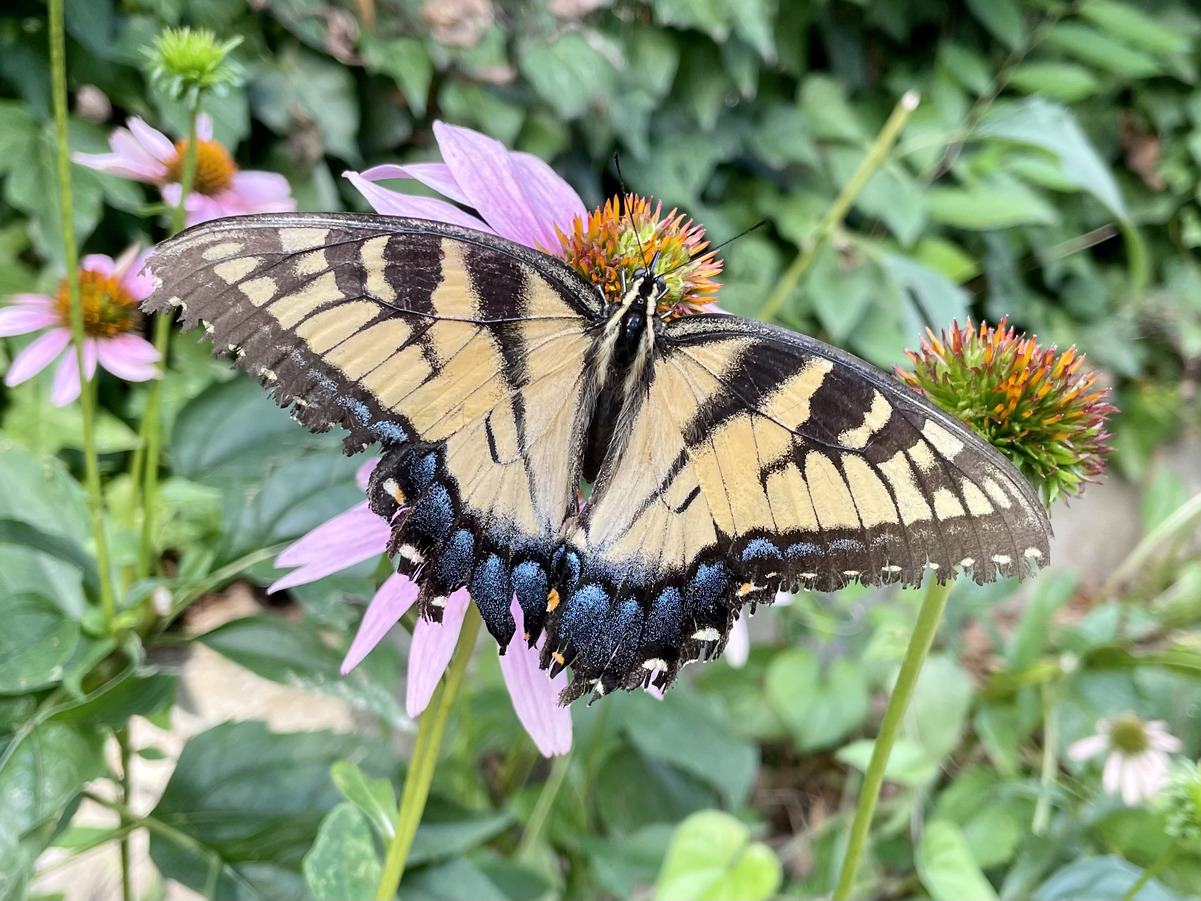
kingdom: Animalia
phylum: Arthropoda
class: Insecta
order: Lepidoptera
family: Papilionidae
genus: Papilio
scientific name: Papilio glaucus
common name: Tiger swallowtail
